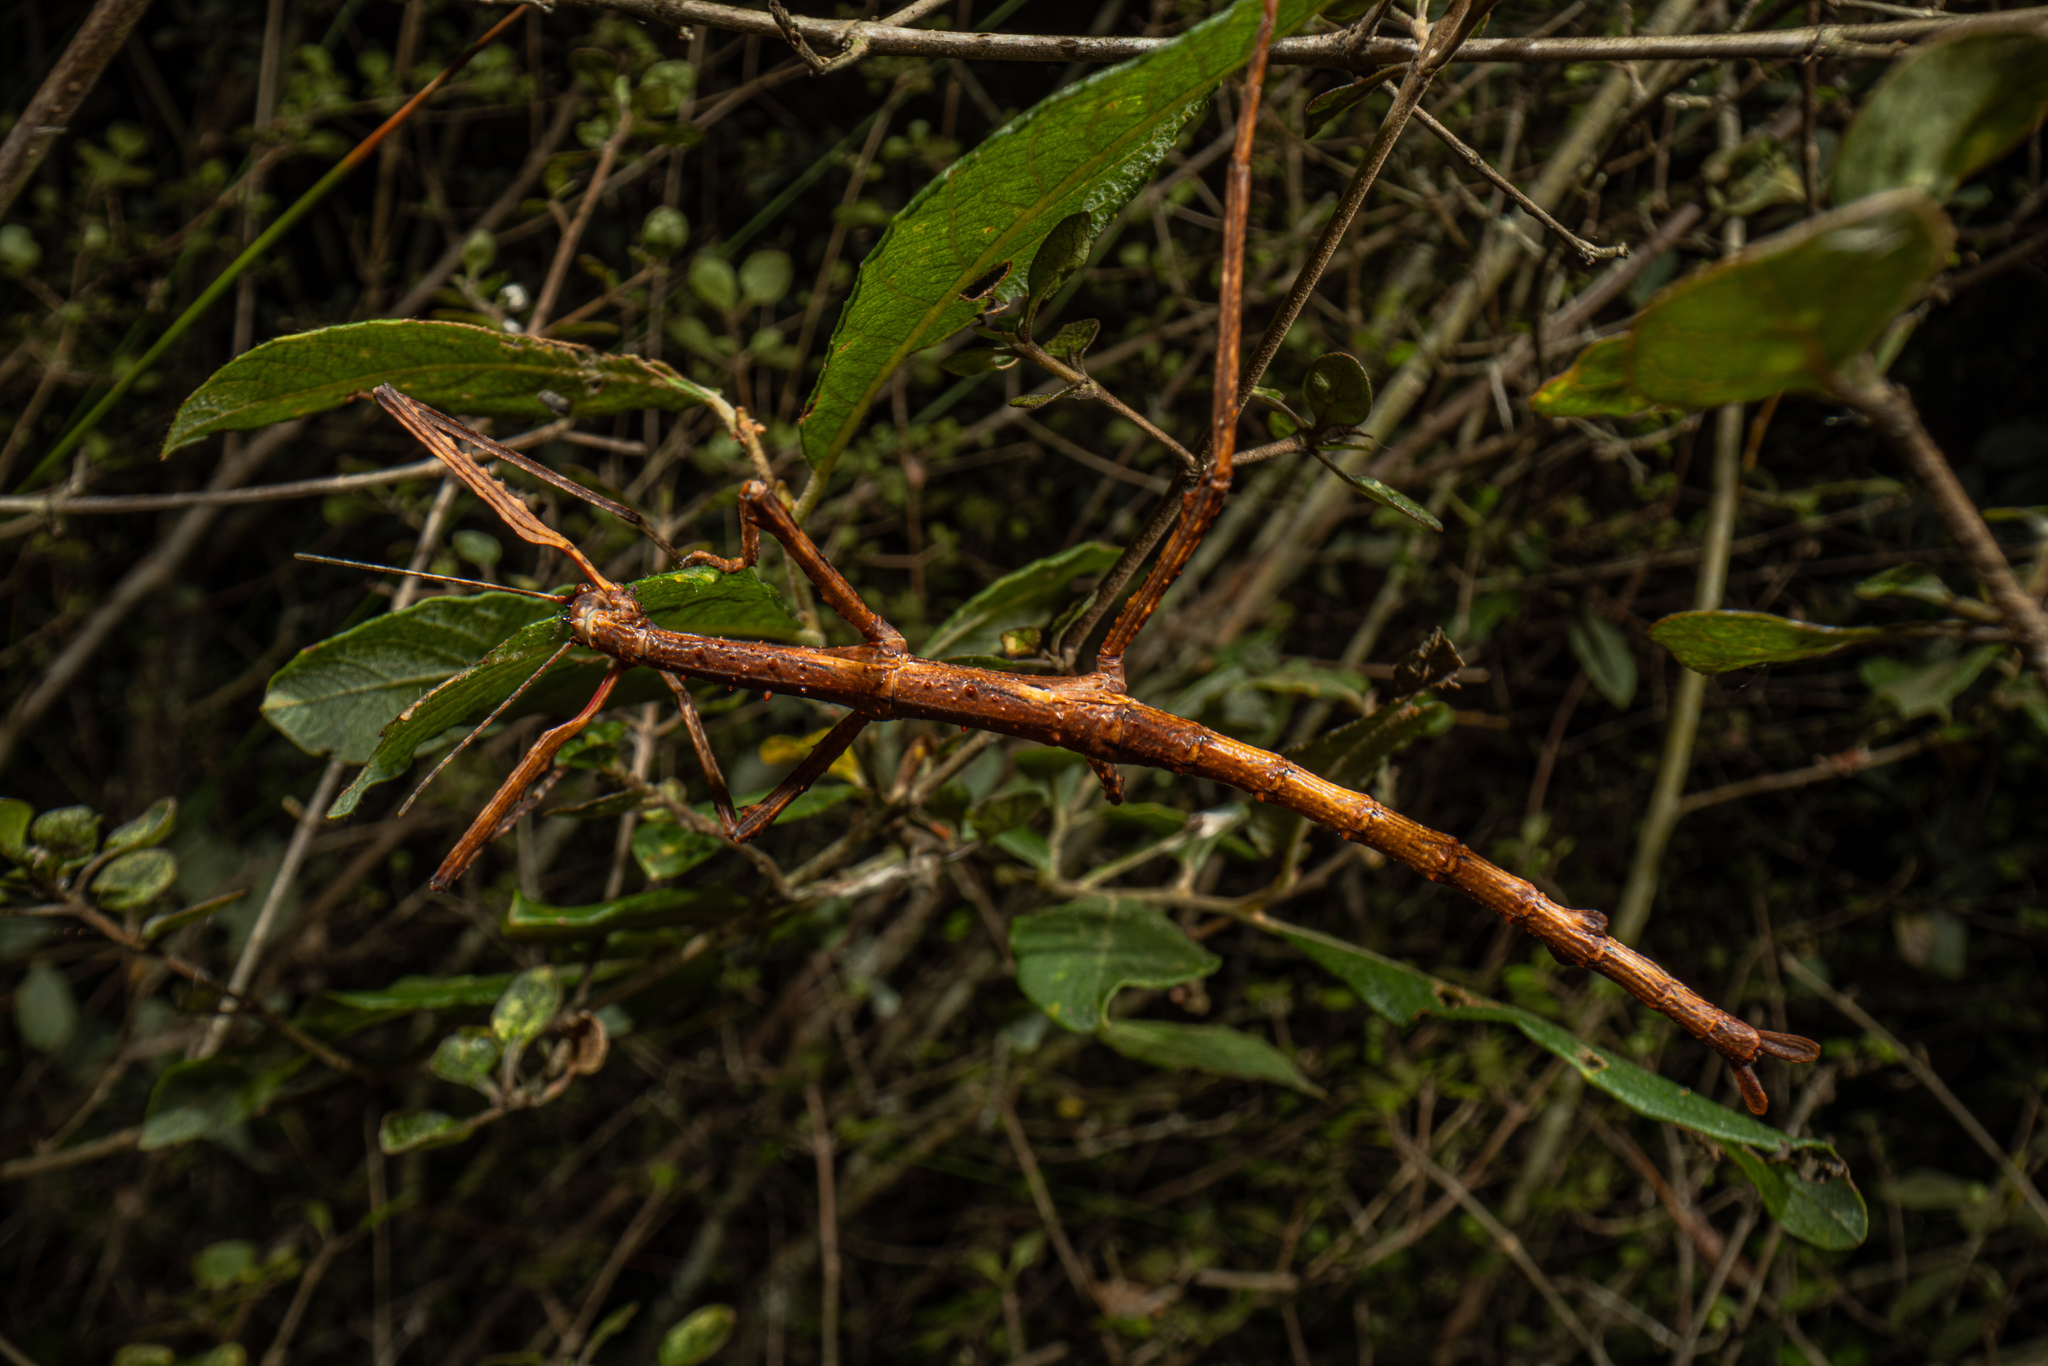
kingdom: Animalia
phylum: Arthropoda
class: Insecta
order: Phasmida
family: Phasmatidae
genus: Acanthoxyla
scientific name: Acanthoxyla prasina
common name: Black-spined stick insect
